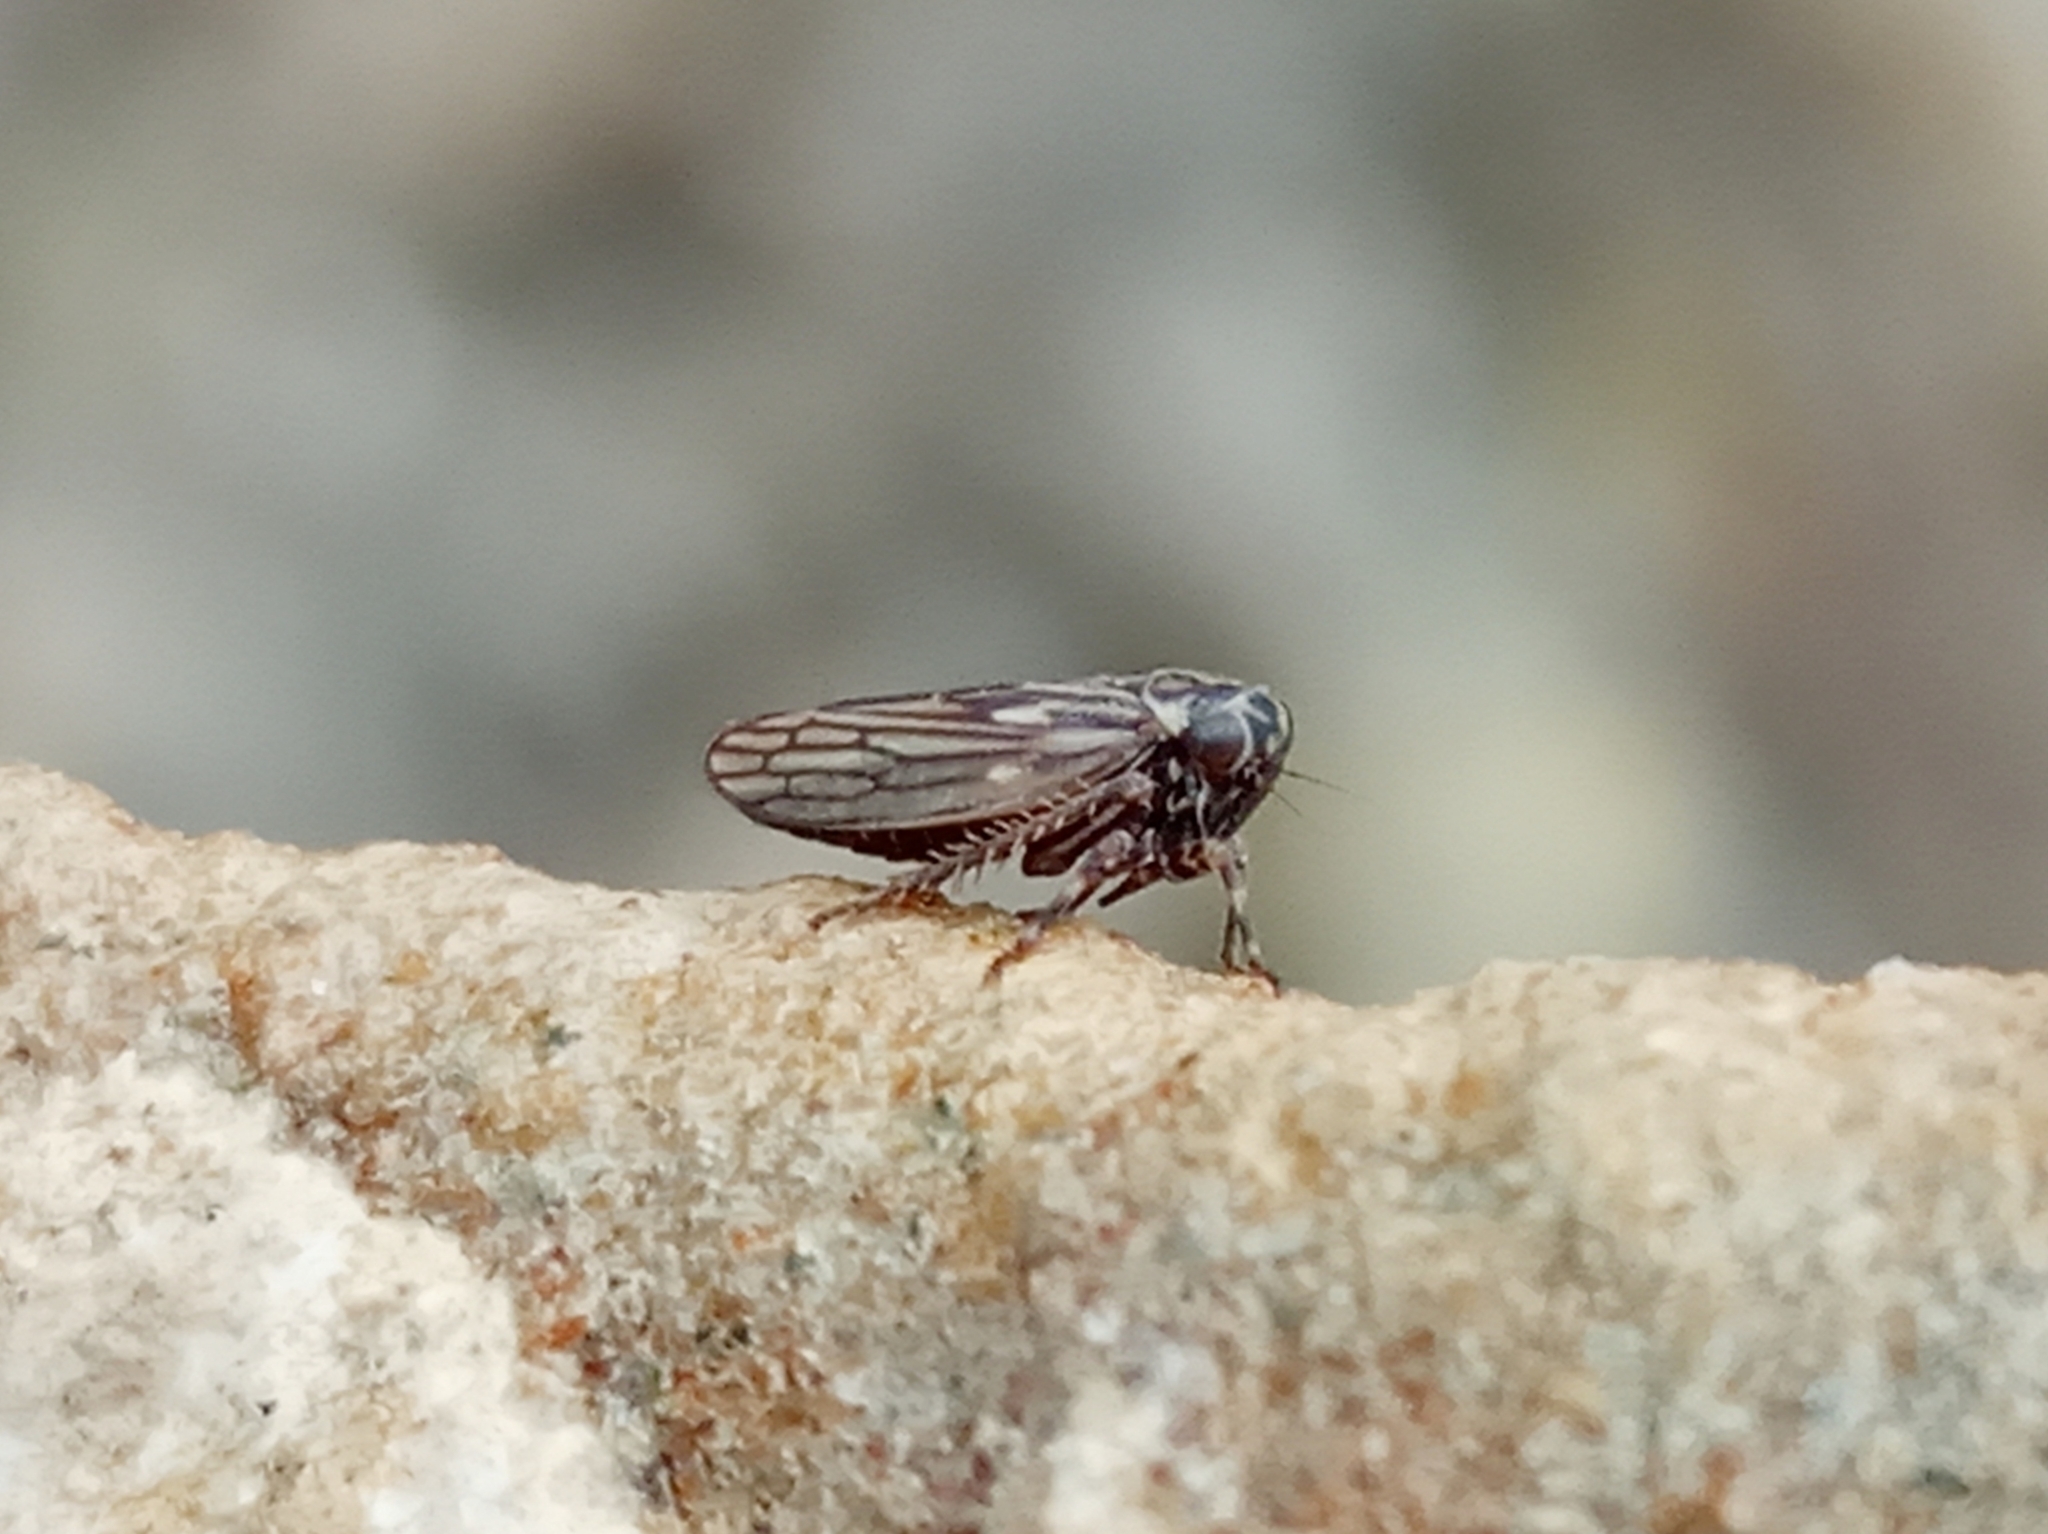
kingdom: Animalia
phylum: Arthropoda
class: Insecta
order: Hemiptera
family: Cicadellidae
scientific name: Cicadellidae
